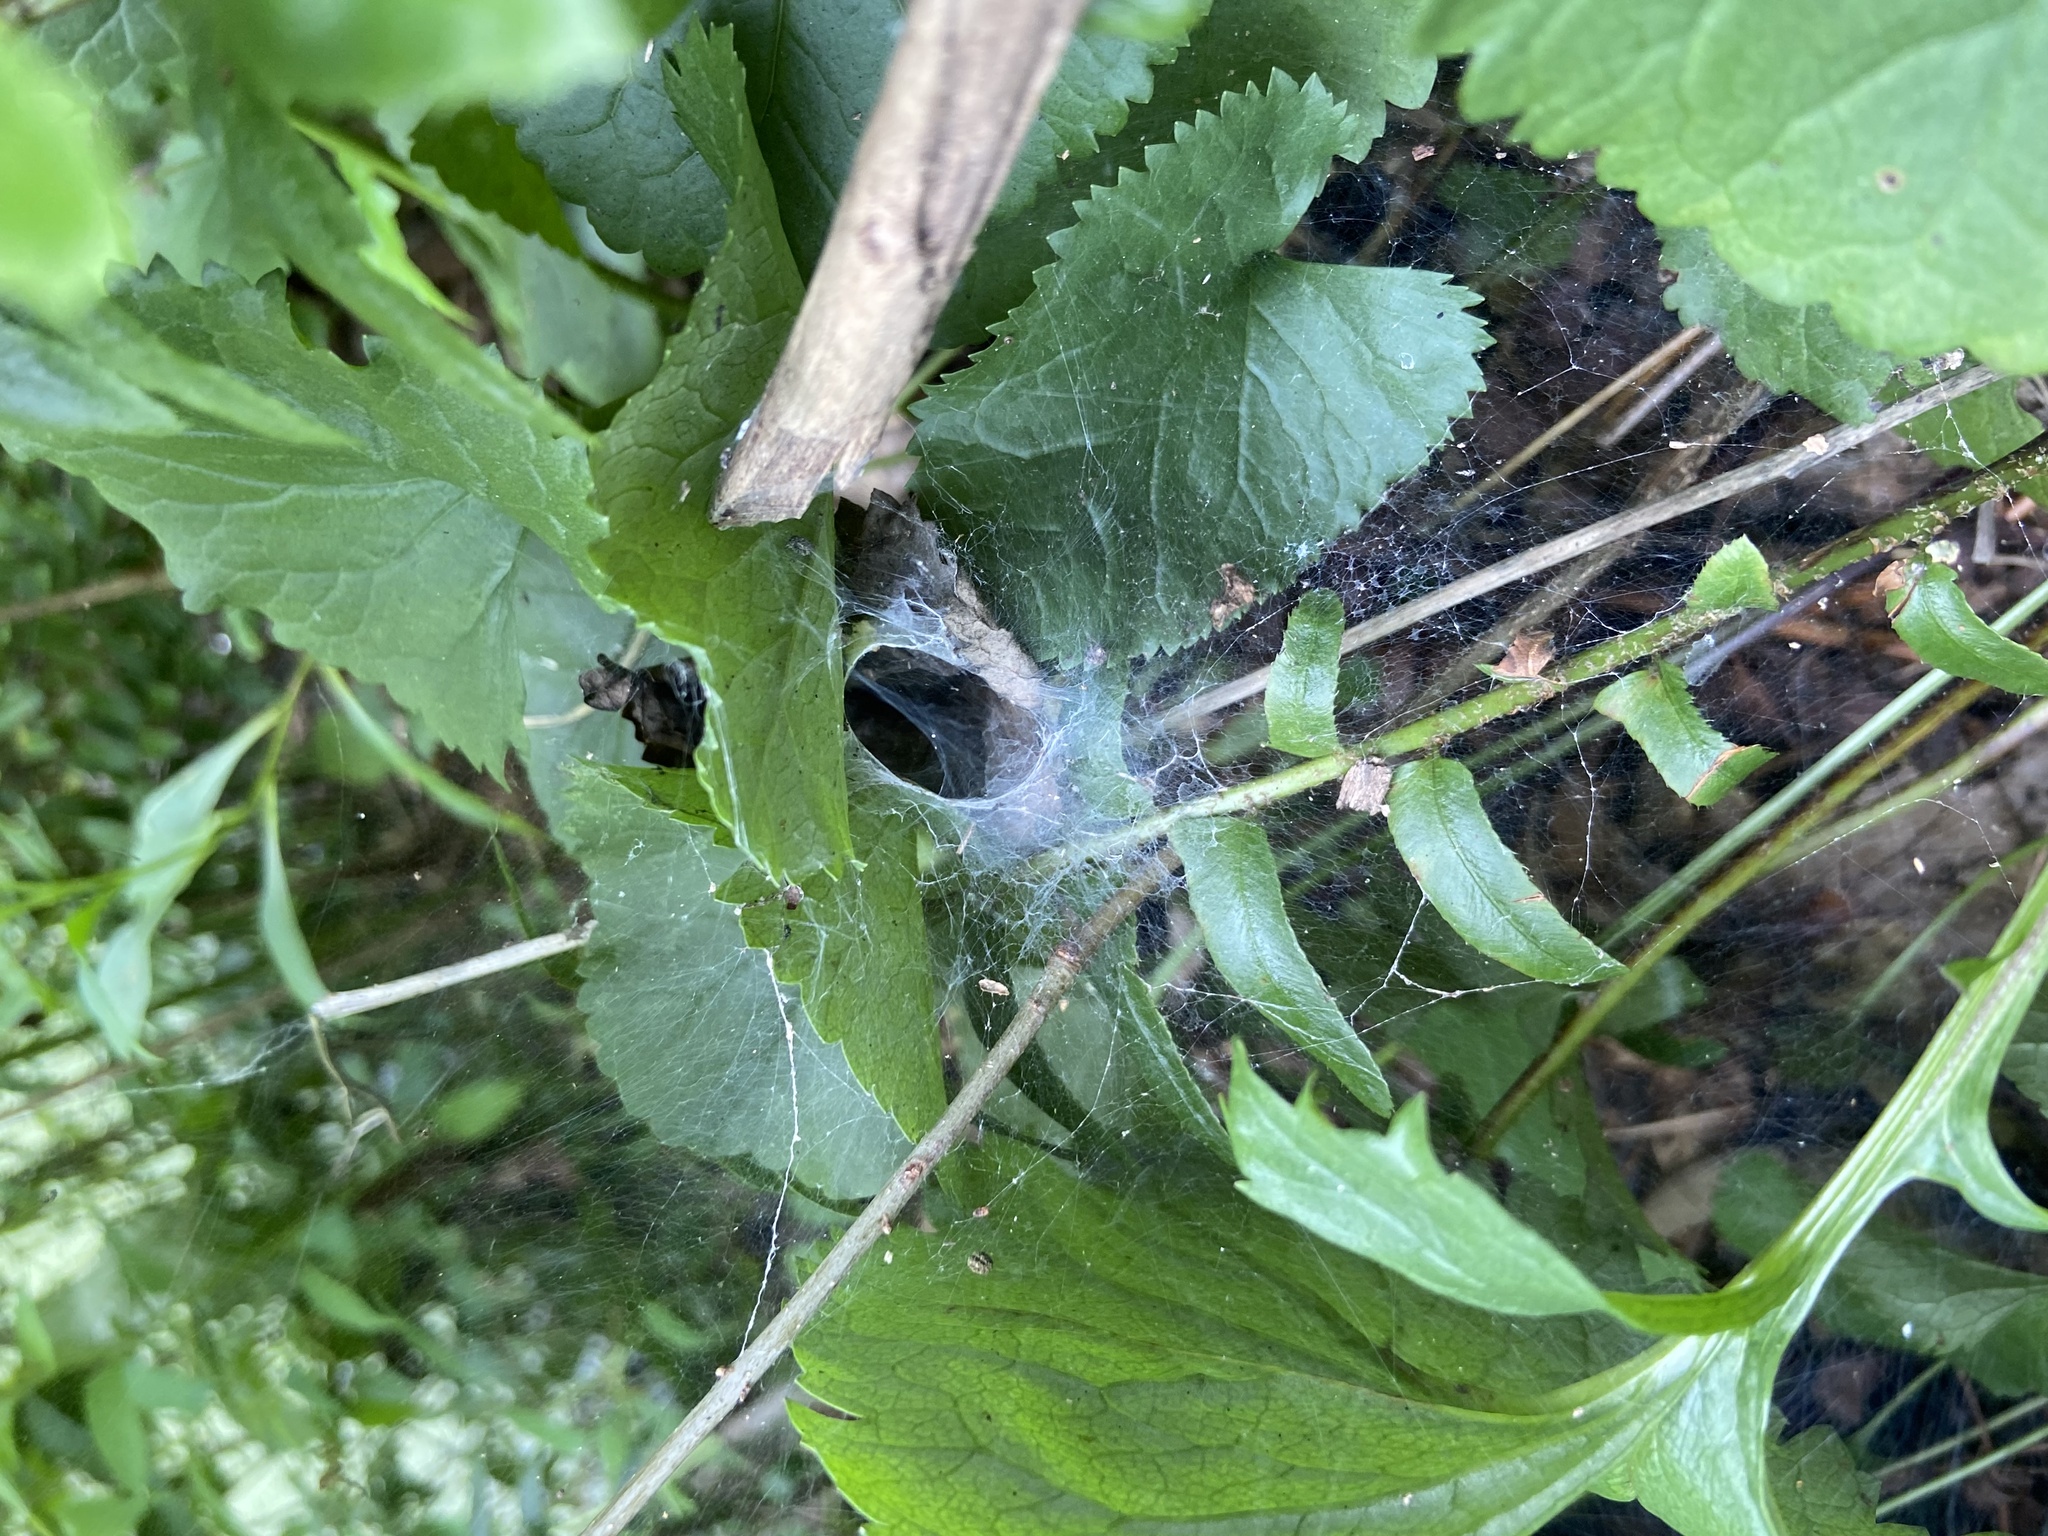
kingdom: Animalia
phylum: Arthropoda
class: Arachnida
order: Araneae
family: Agelenidae
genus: Agelenopsis
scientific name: Agelenopsis
